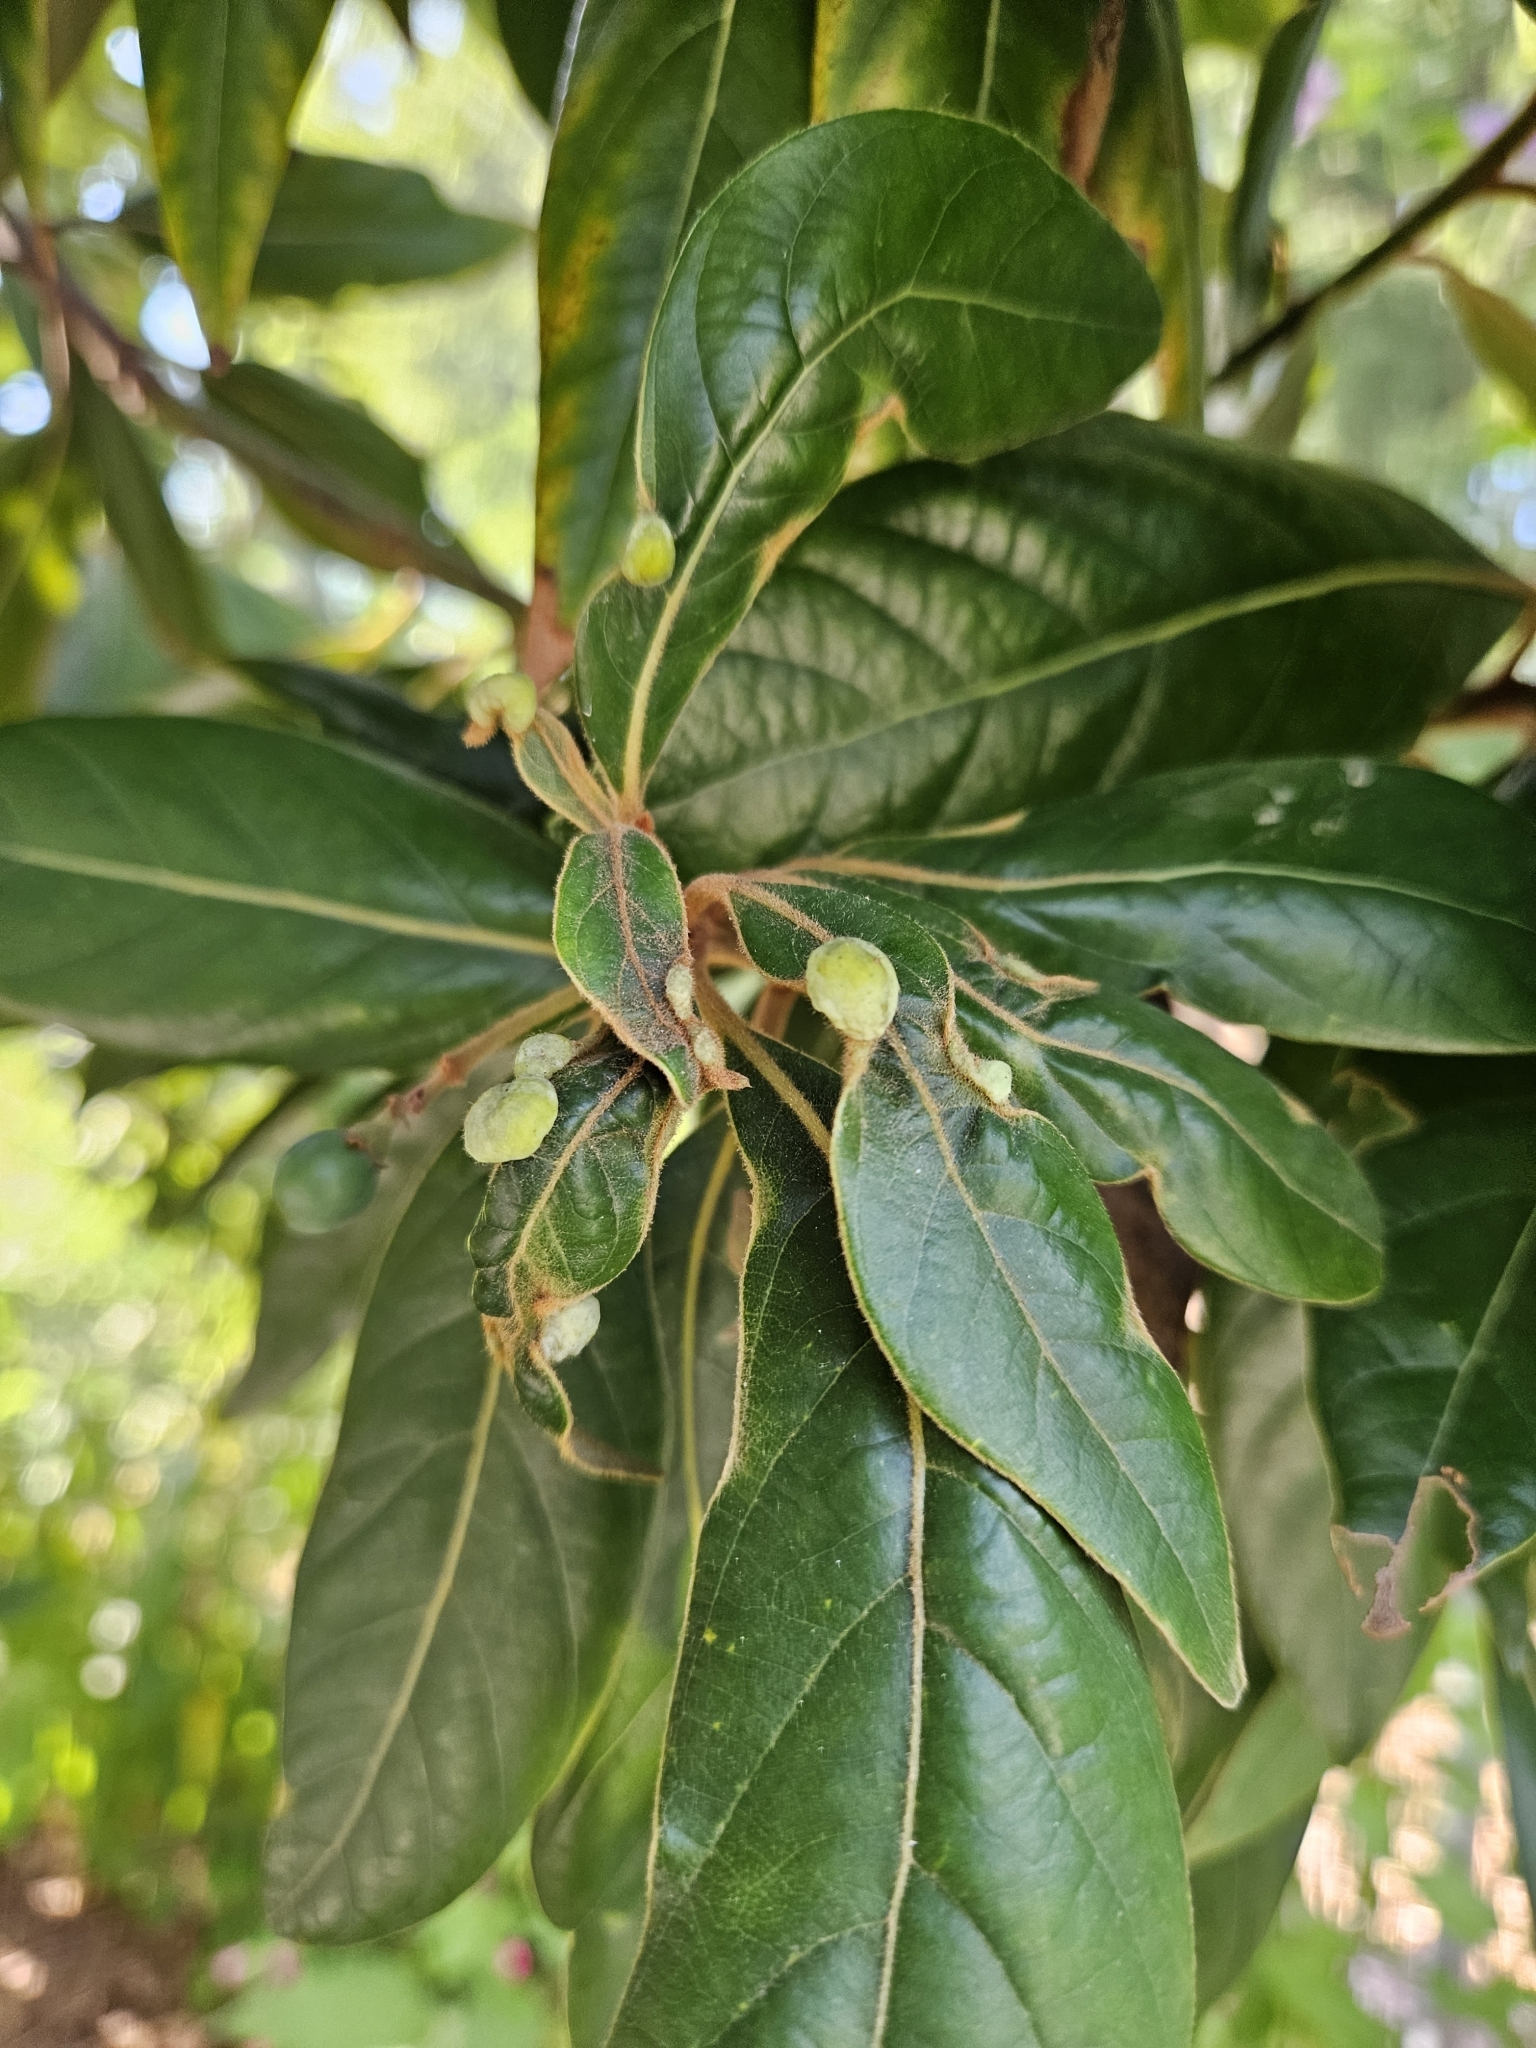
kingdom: Animalia
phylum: Arthropoda
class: Insecta
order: Hemiptera
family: Triozidae
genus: Trioza
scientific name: Trioza magnoliae
